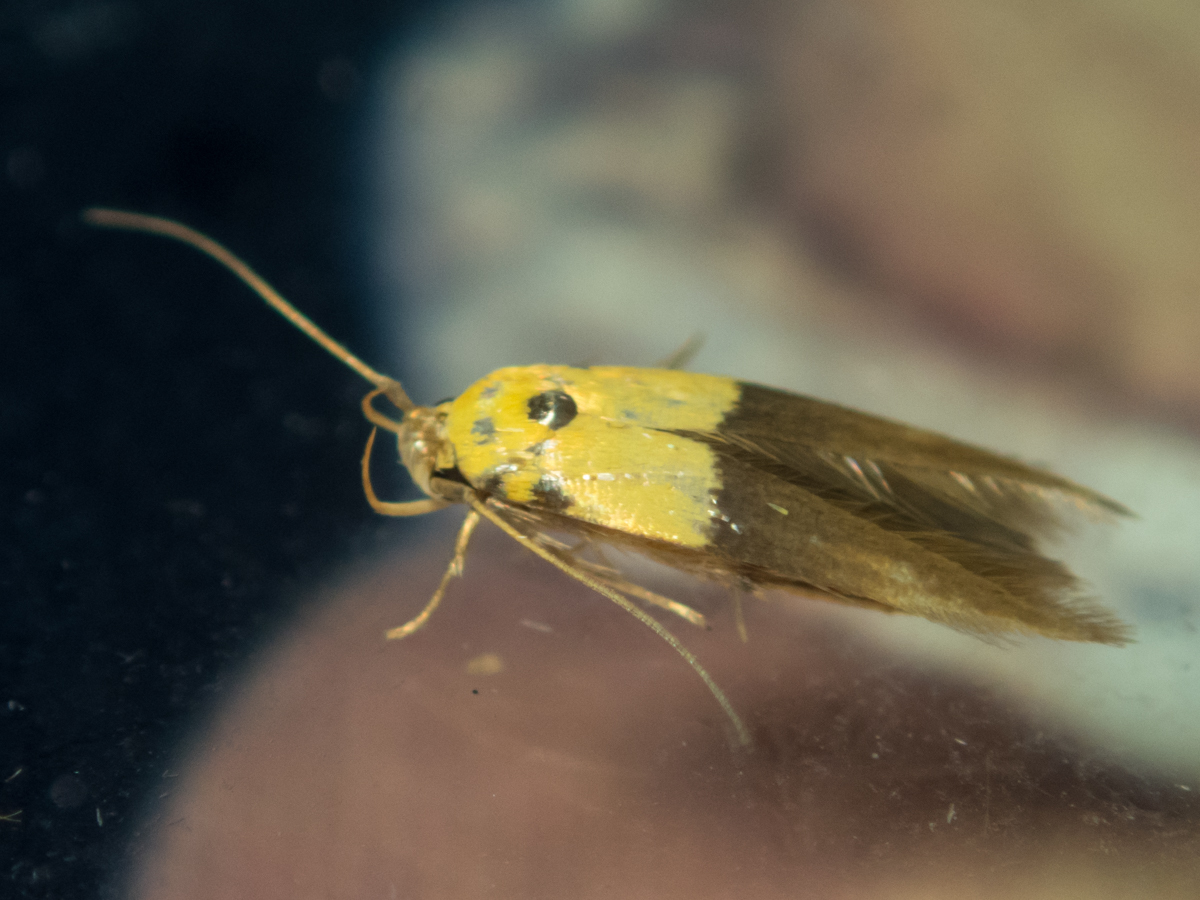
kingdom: Animalia
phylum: Arthropoda
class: Insecta
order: Lepidoptera
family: Stathmopodidae
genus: Stathmopoda
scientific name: Stathmopoda auriferella
